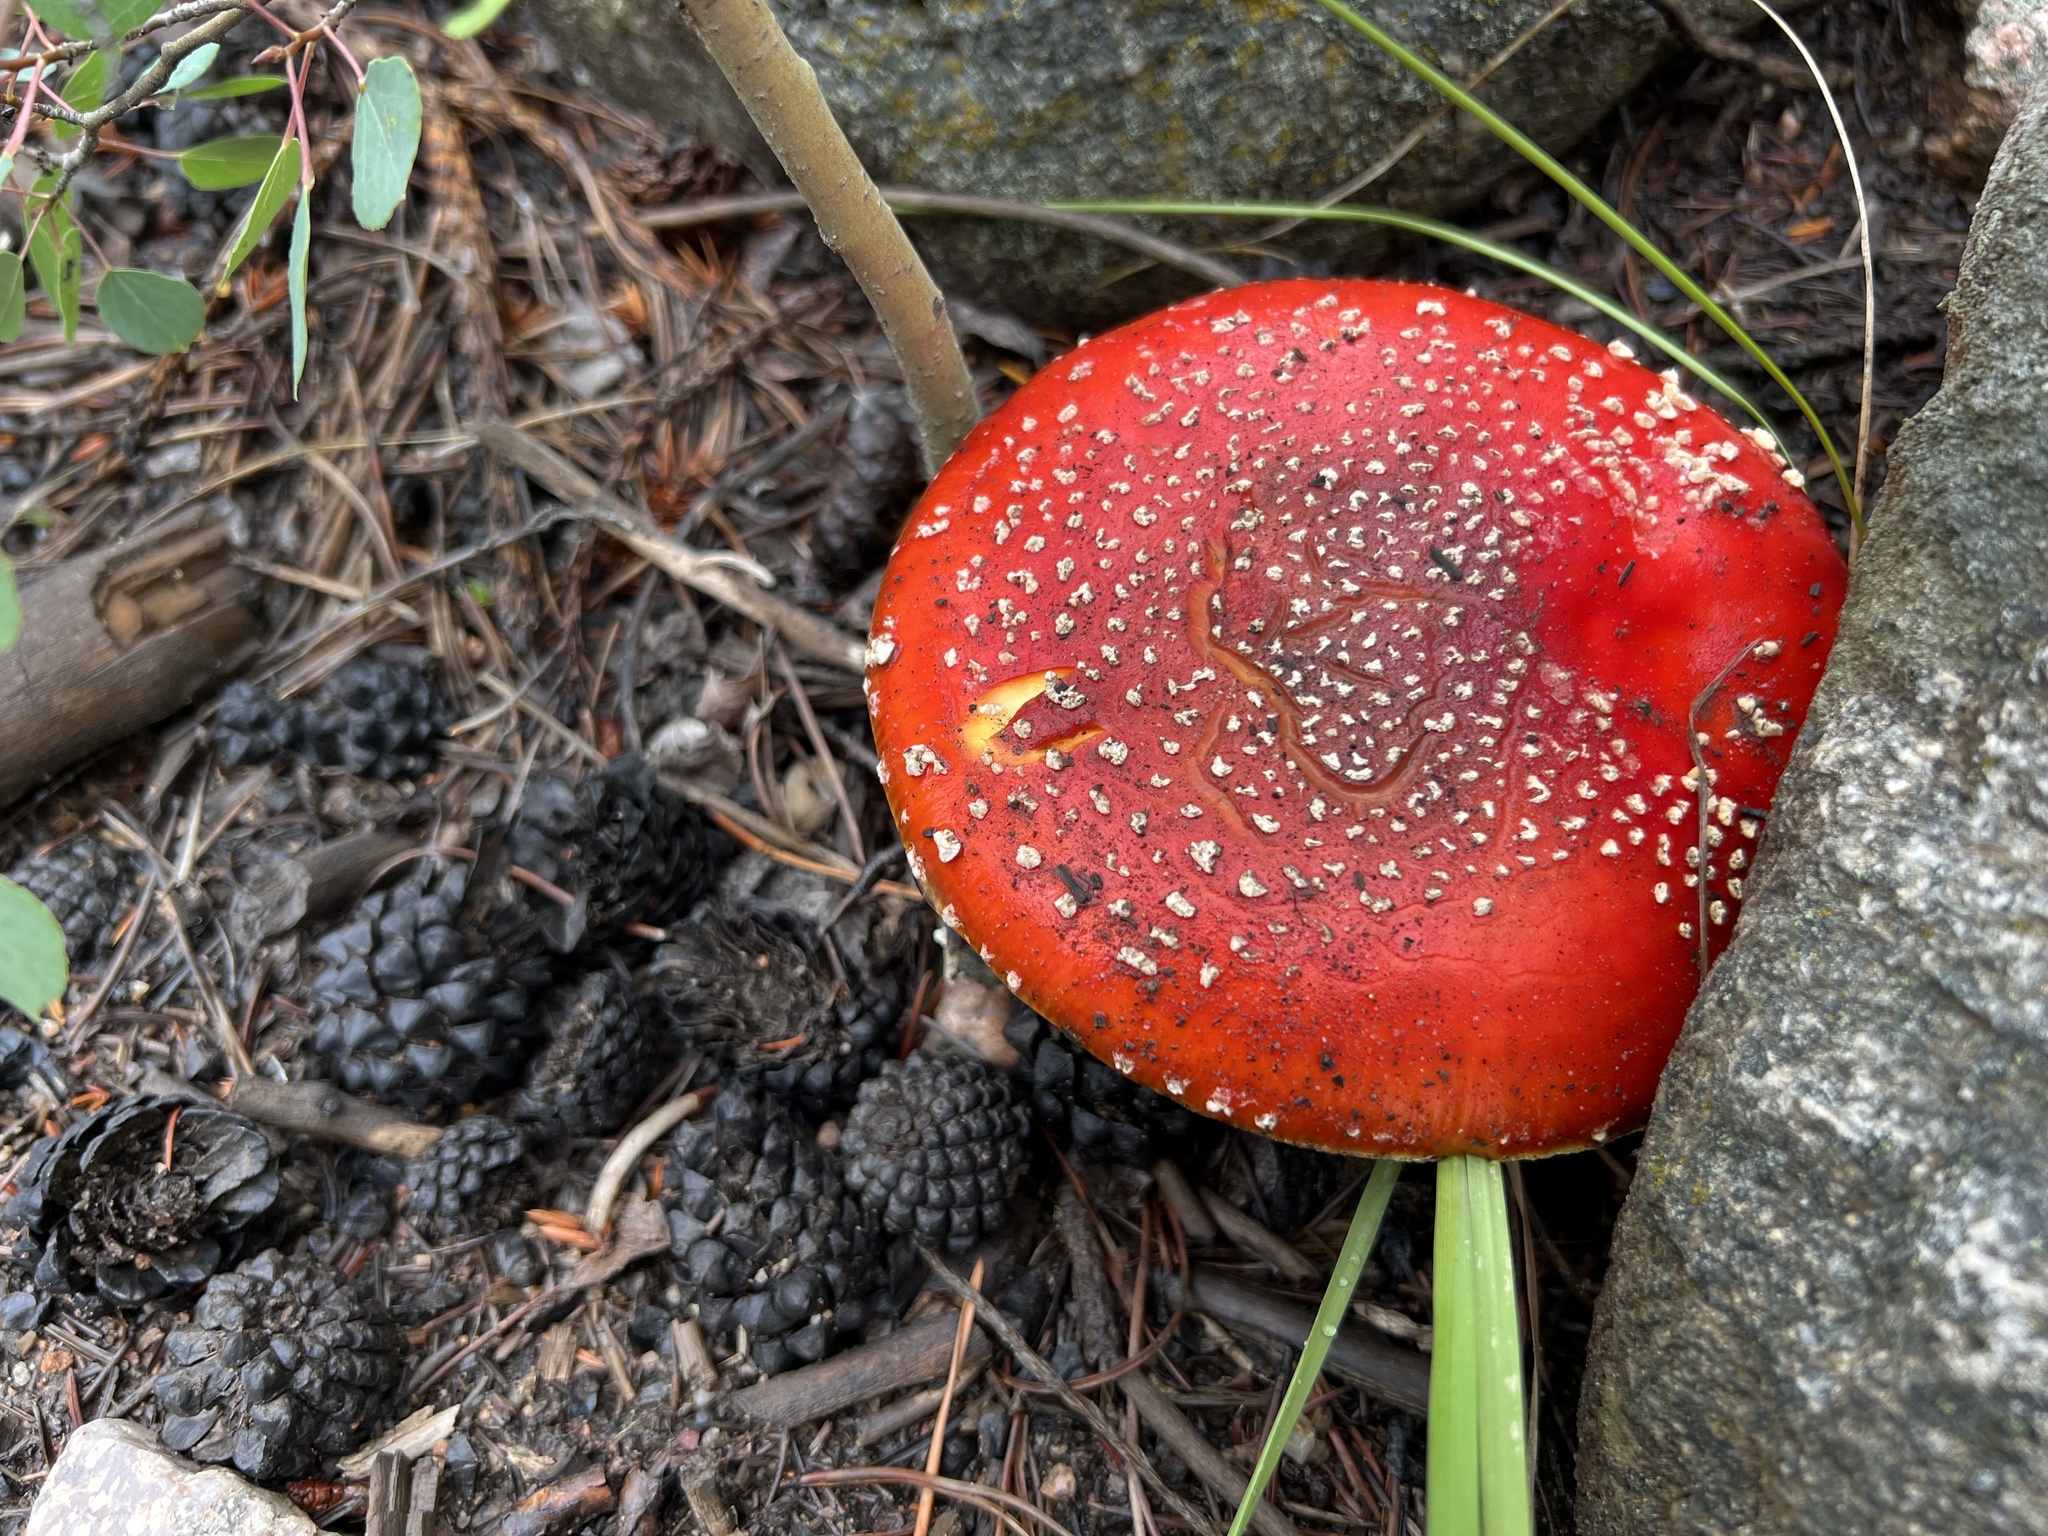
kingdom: Fungi
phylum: Basidiomycota
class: Agaricomycetes
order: Agaricales
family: Amanitaceae
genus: Amanita
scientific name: Amanita muscaria
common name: Fly agaric
